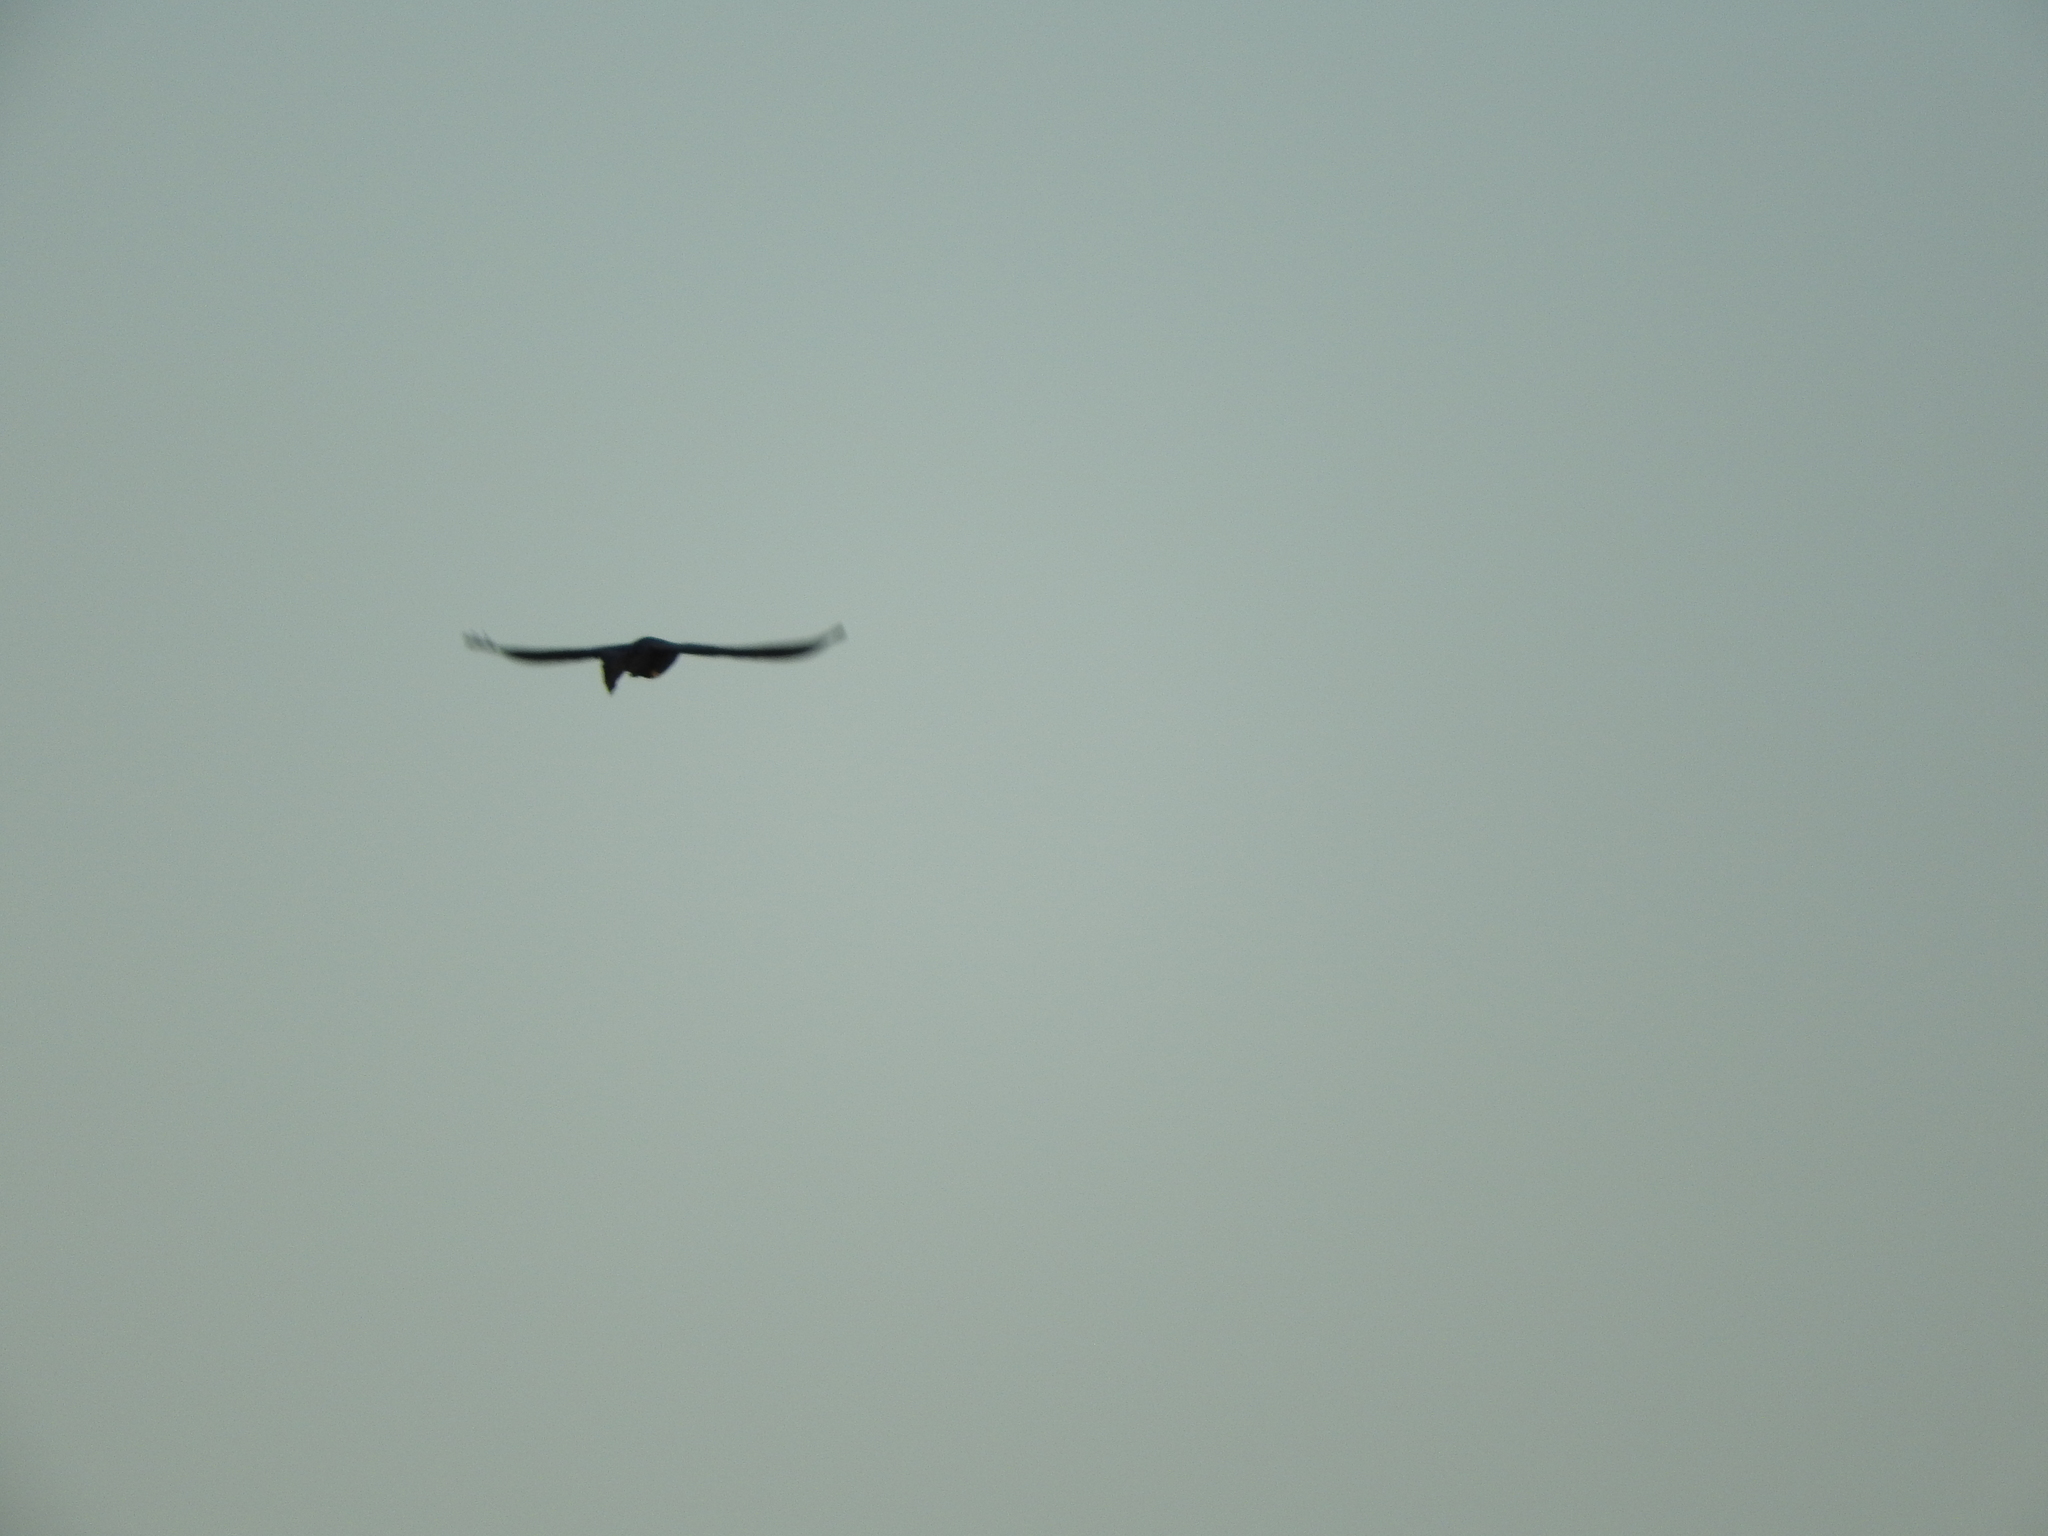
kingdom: Animalia
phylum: Chordata
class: Aves
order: Passeriformes
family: Icteridae
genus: Quiscalus
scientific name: Quiscalus mexicanus
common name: Great-tailed grackle
